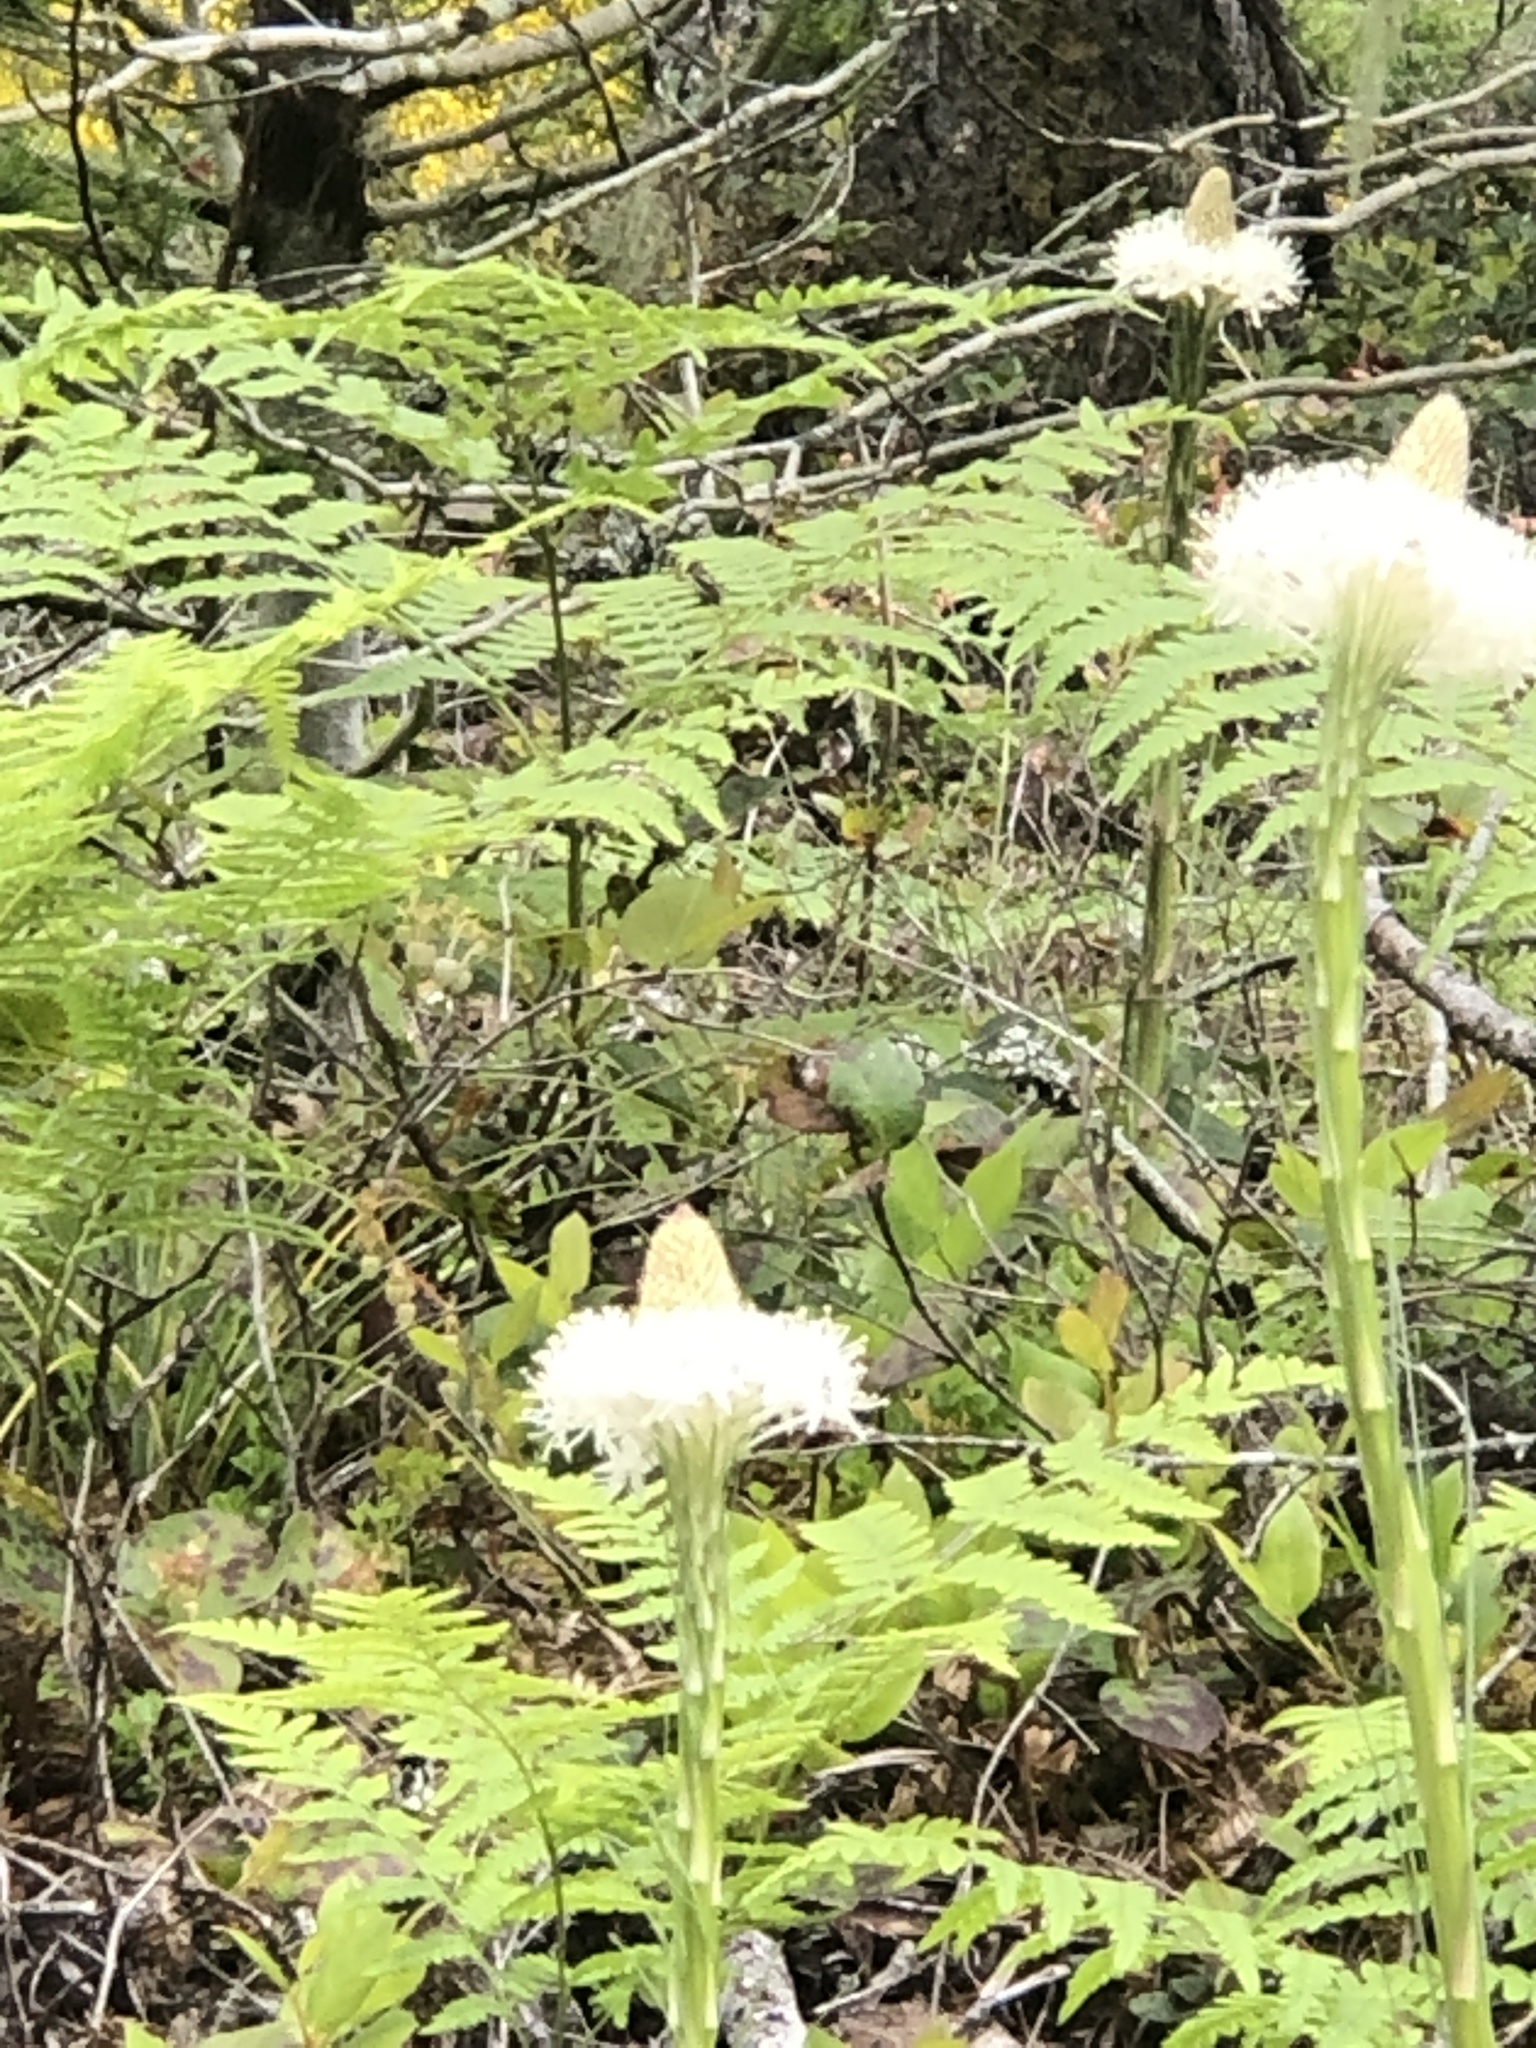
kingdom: Plantae
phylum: Tracheophyta
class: Liliopsida
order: Liliales
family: Melanthiaceae
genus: Xerophyllum
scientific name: Xerophyllum tenax
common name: Bear-grass
